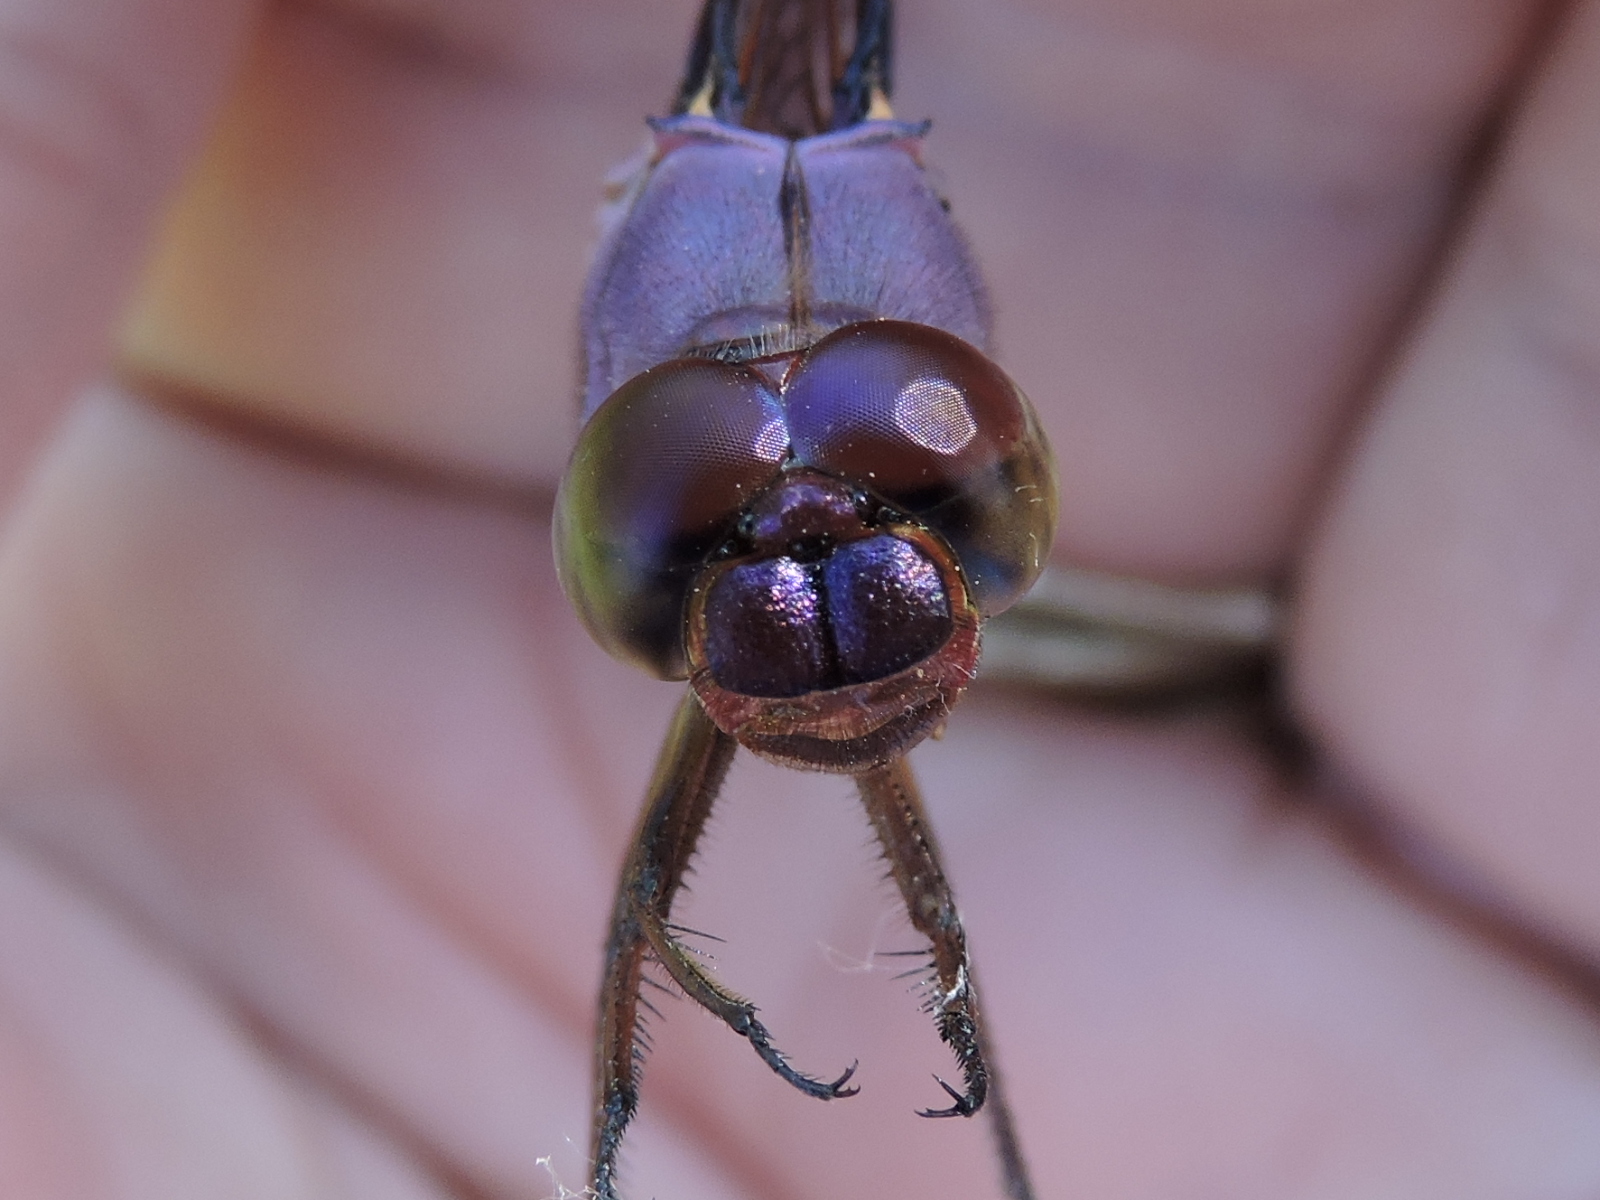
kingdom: Animalia
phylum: Arthropoda
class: Insecta
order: Odonata
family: Libellulidae
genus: Orthemis
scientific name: Orthemis ferruginea
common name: Roseate skimmer
